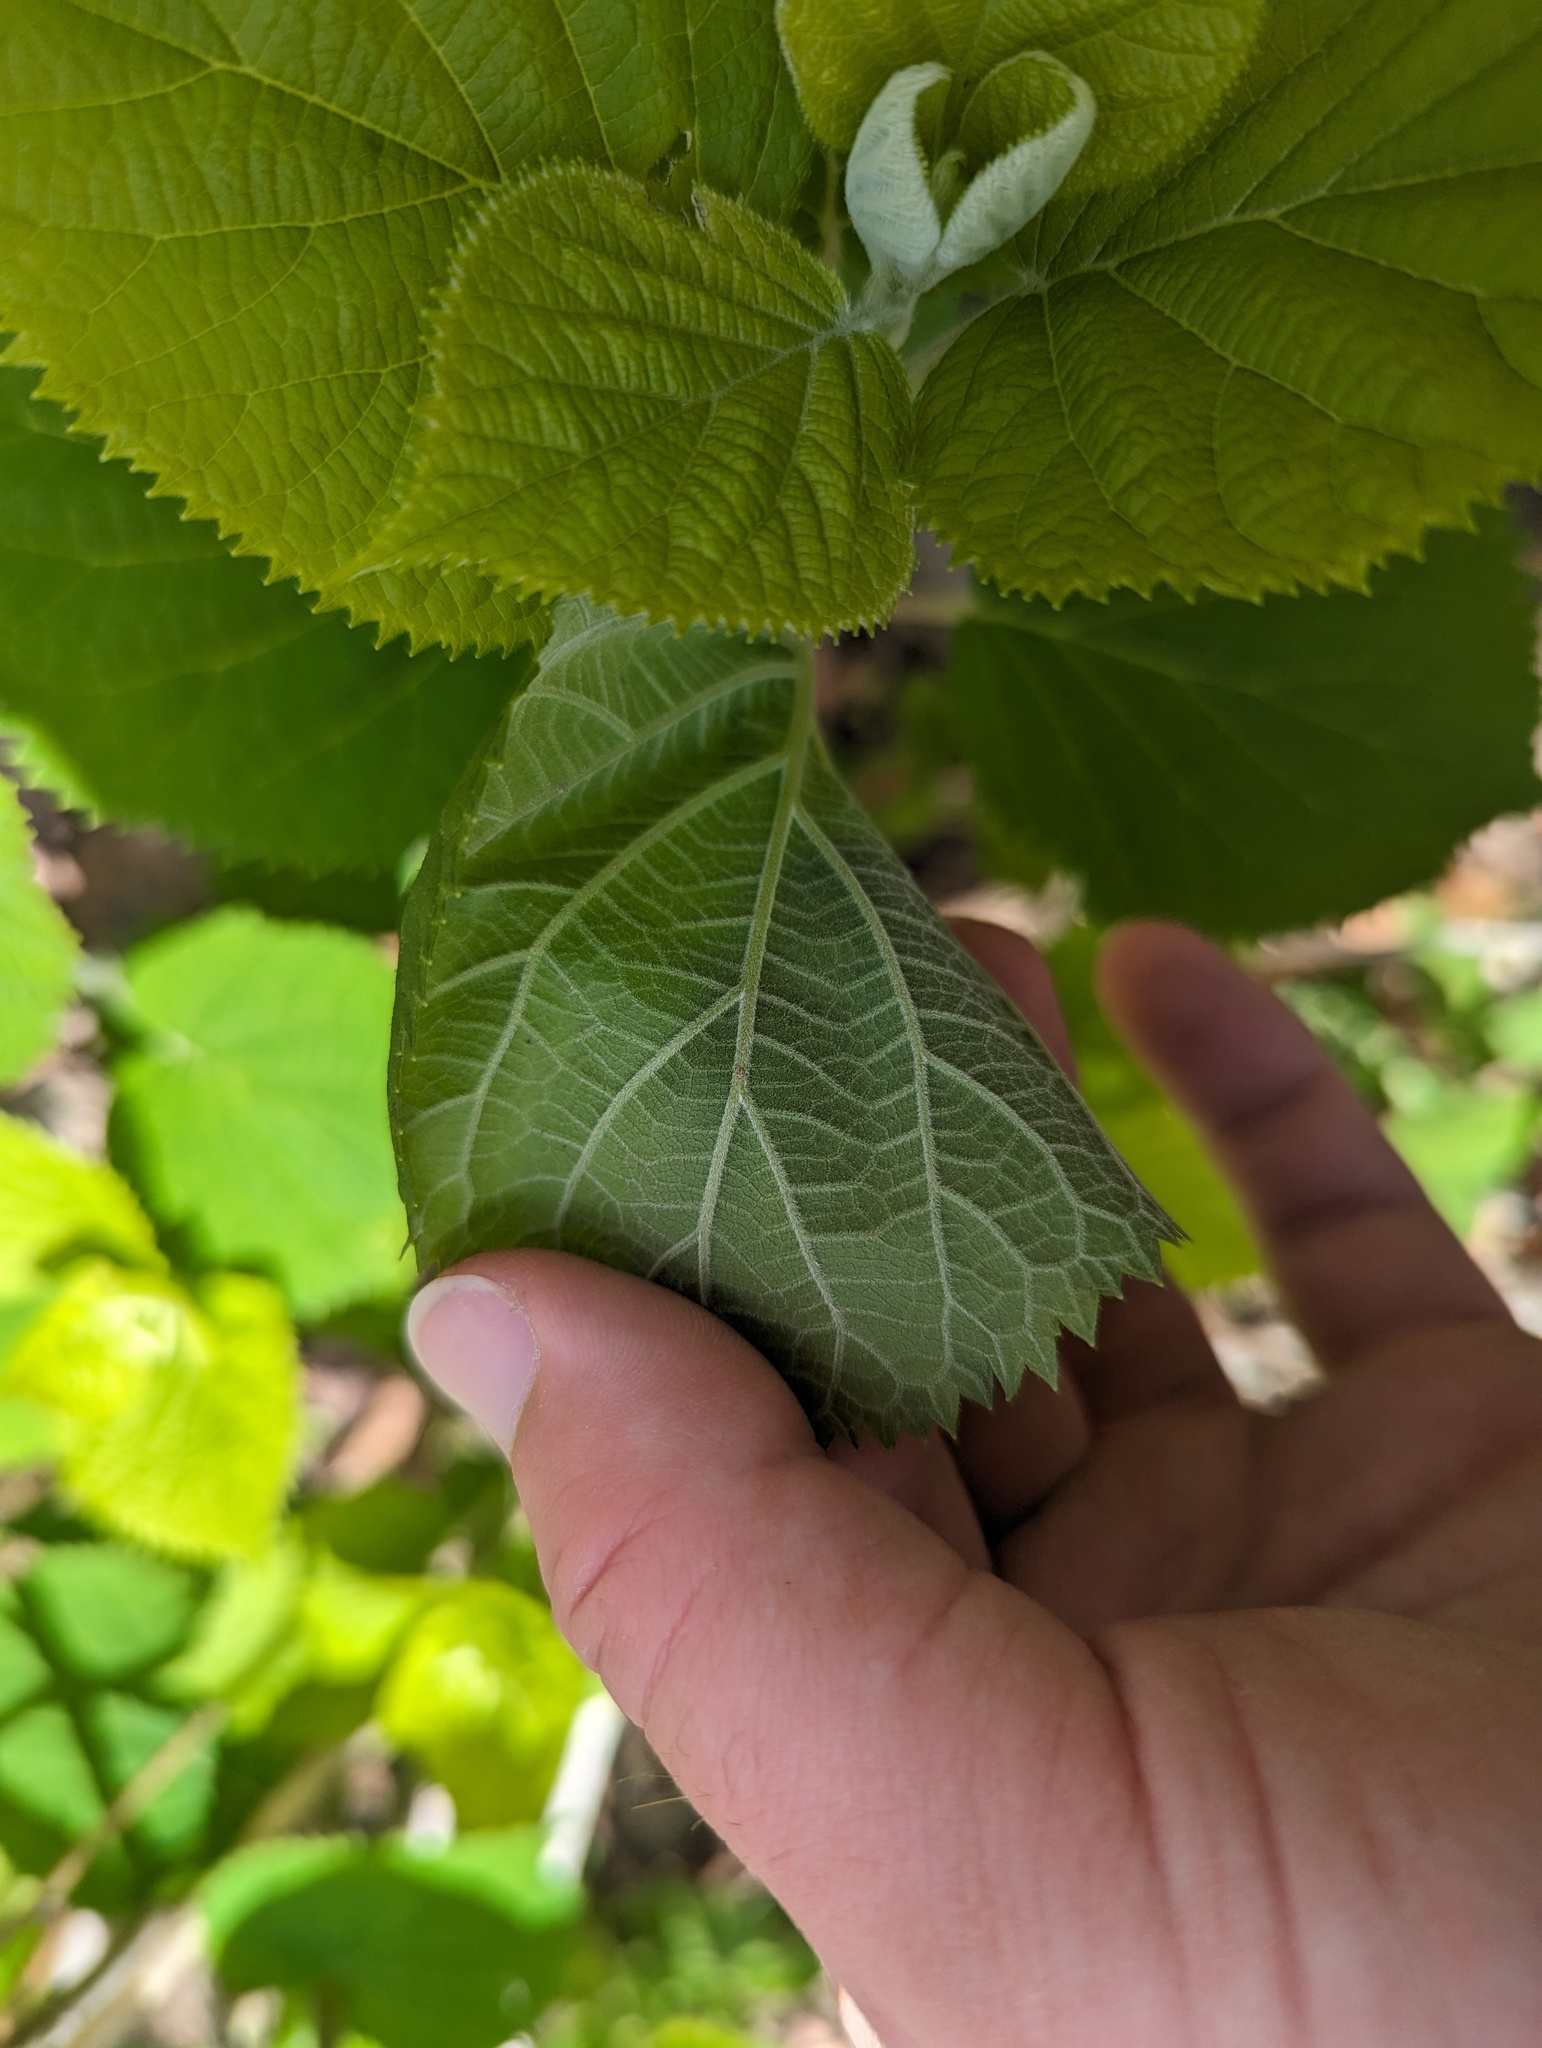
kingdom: Plantae
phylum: Tracheophyta
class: Magnoliopsida
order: Cornales
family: Hydrangeaceae
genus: Hydrangea
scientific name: Hydrangea cinerea
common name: Ashy hydrangea
